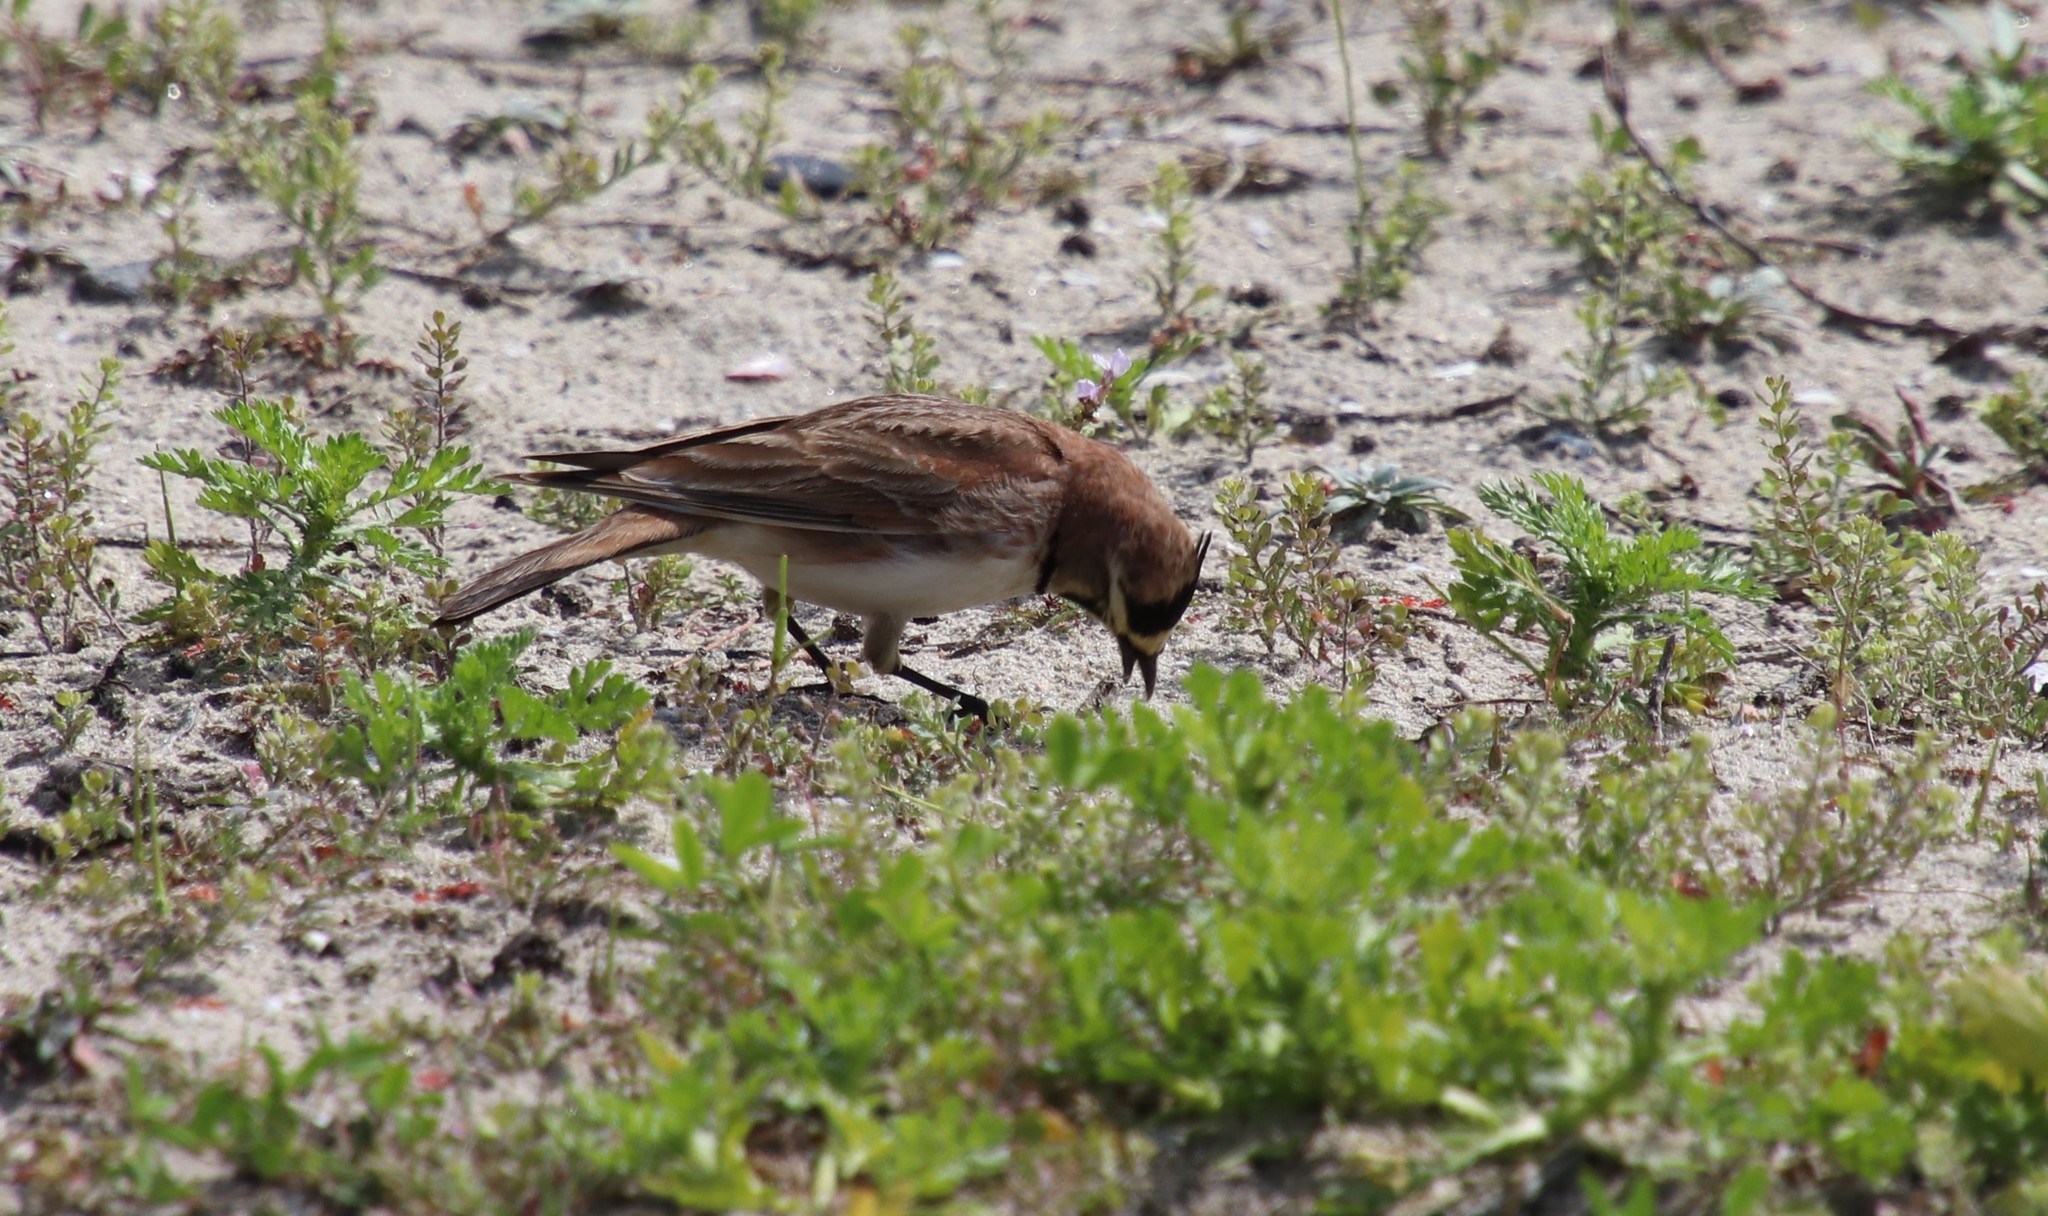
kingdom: Animalia
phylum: Chordata
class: Aves
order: Passeriformes
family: Alaudidae
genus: Eremophila
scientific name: Eremophila alpestris
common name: Horned lark
